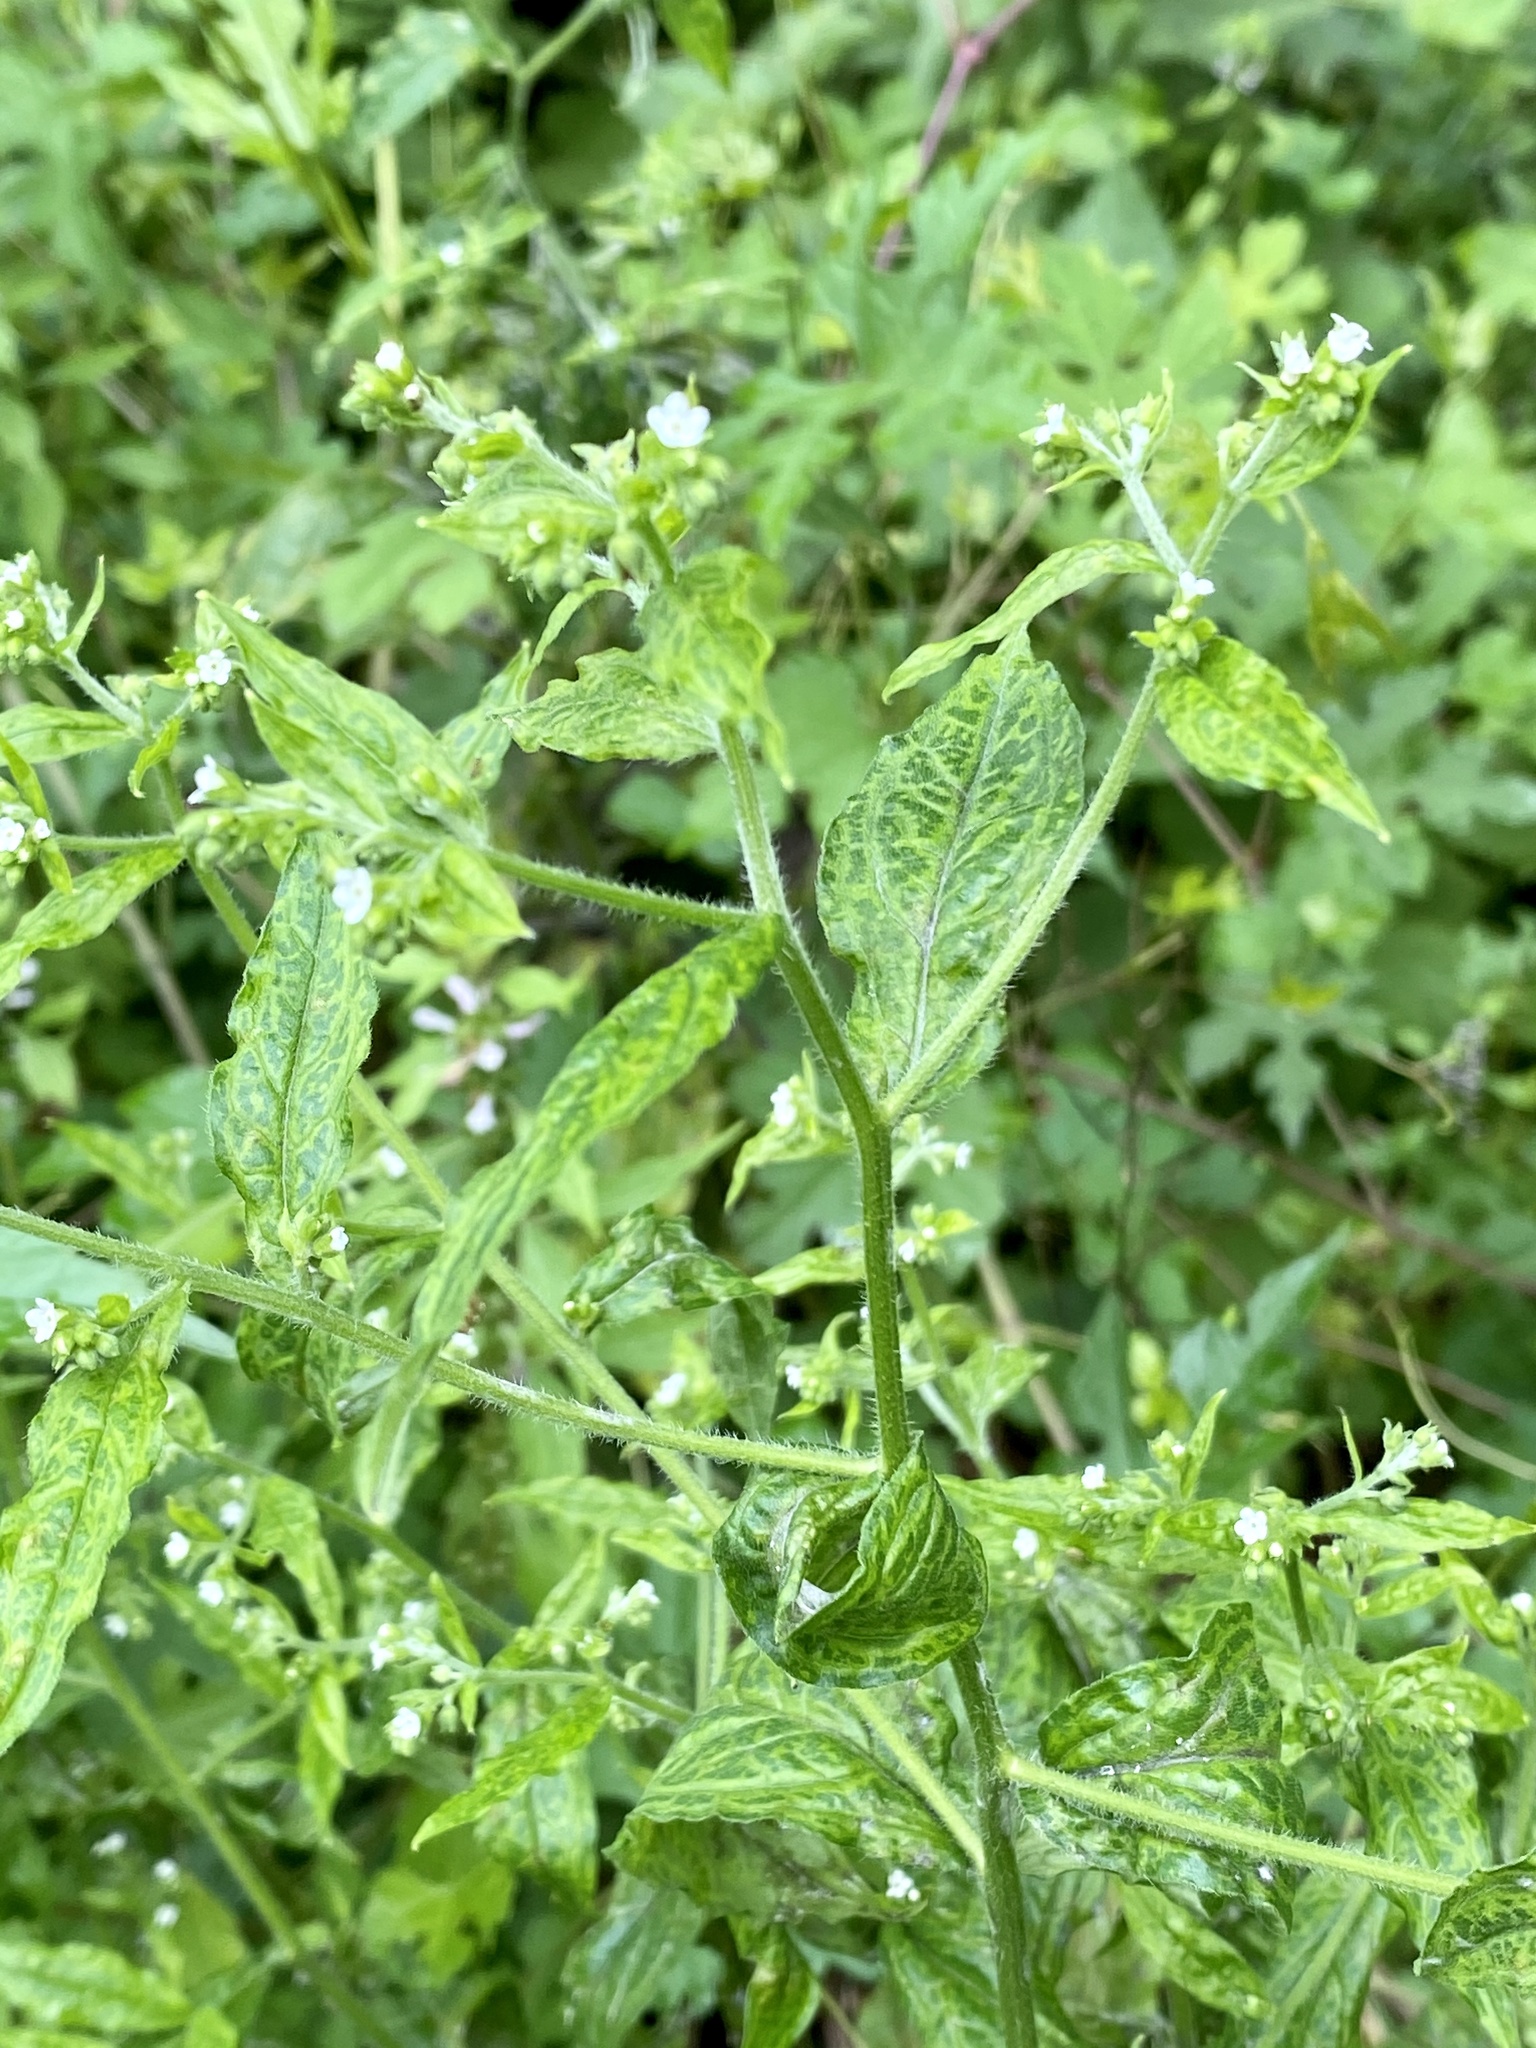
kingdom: Plantae
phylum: Tracheophyta
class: Magnoliopsida
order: Boraginales
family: Boraginaceae
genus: Hackelia
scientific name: Hackelia virginiana
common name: Beggar's-lice
